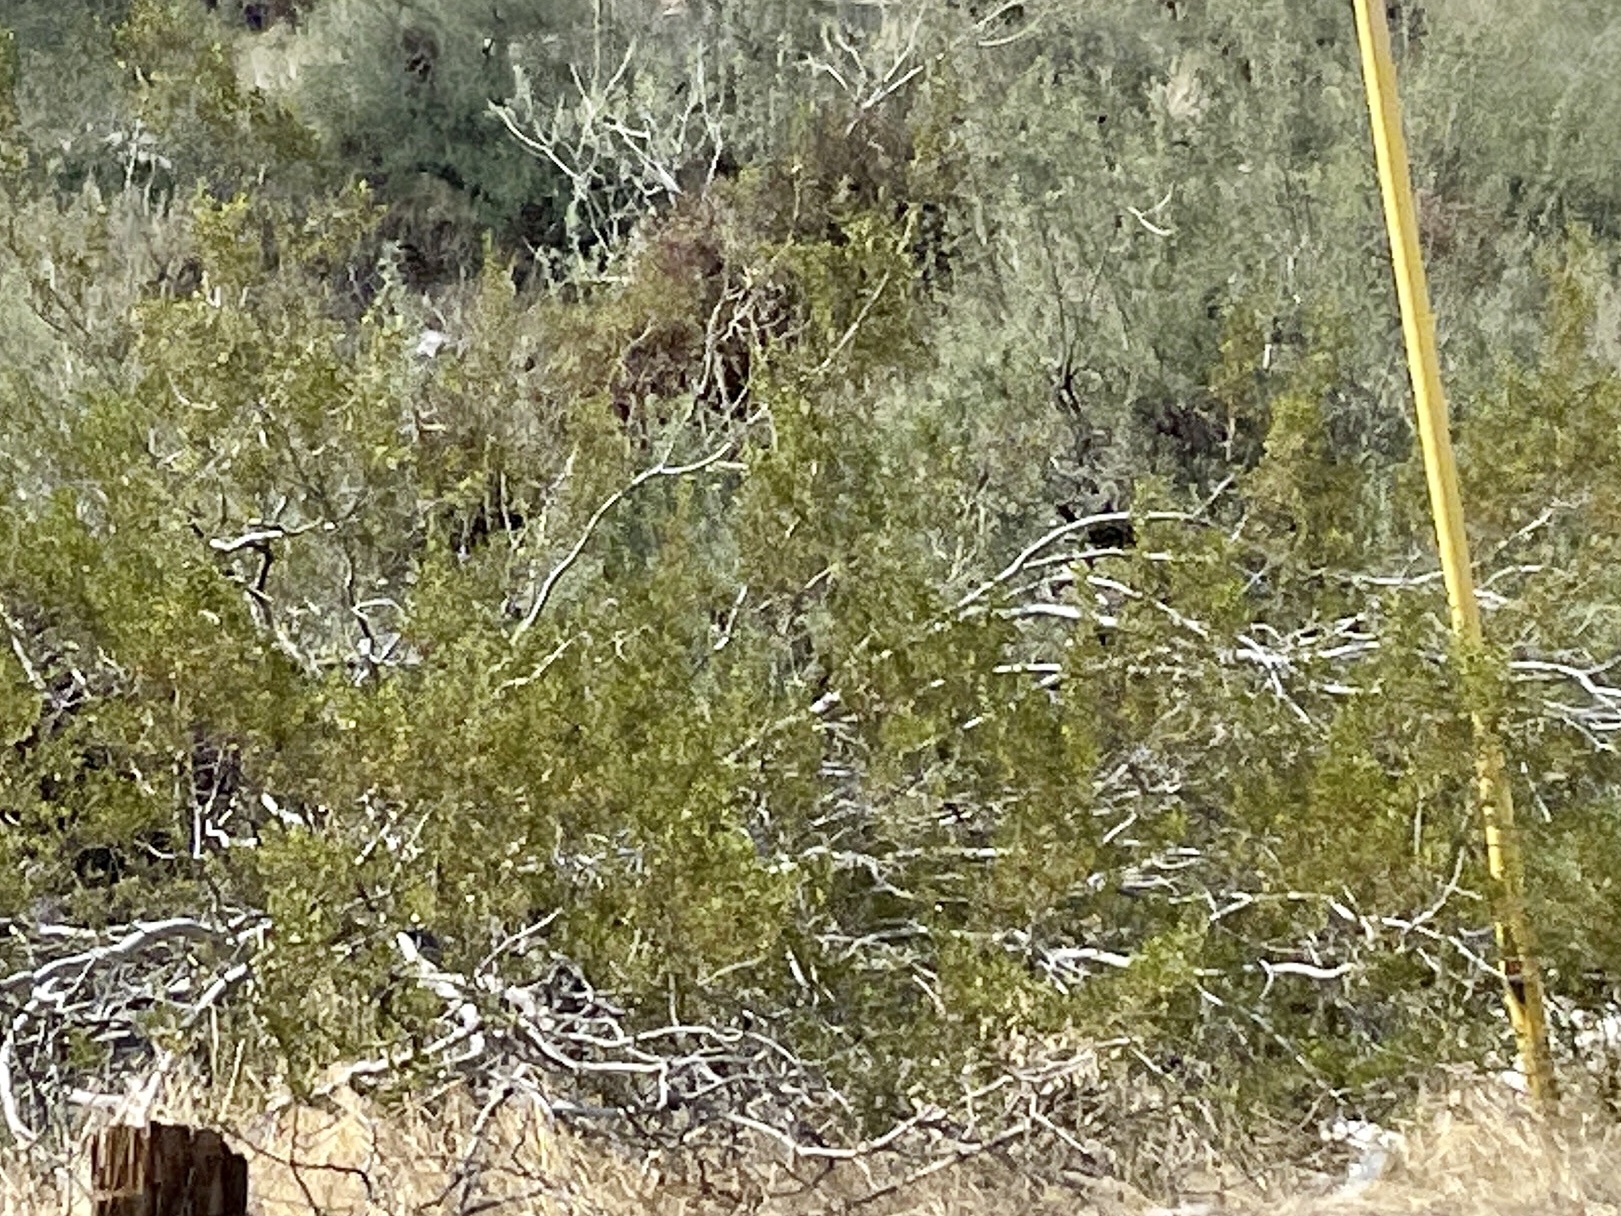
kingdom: Plantae
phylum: Tracheophyta
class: Magnoliopsida
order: Zygophyllales
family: Zygophyllaceae
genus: Larrea
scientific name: Larrea tridentata
